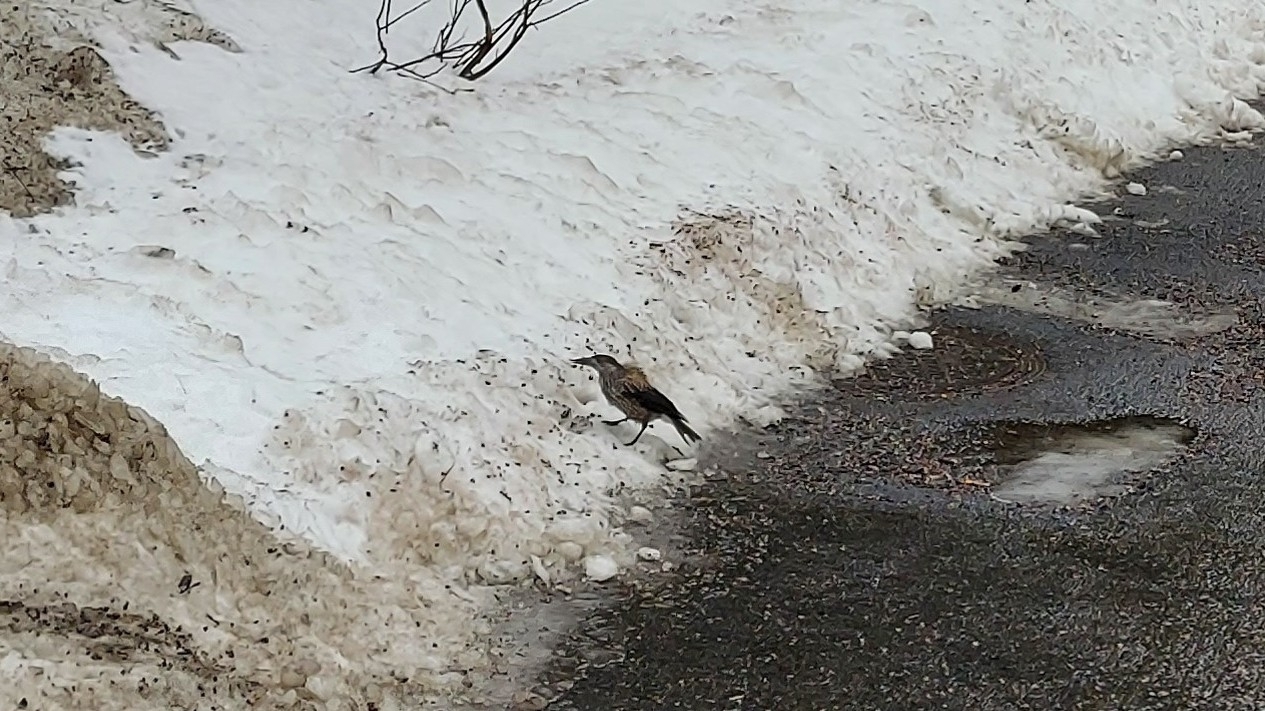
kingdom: Animalia
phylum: Chordata
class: Aves
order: Passeriformes
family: Corvidae
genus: Nucifraga
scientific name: Nucifraga caryocatactes
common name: Spotted nutcracker
